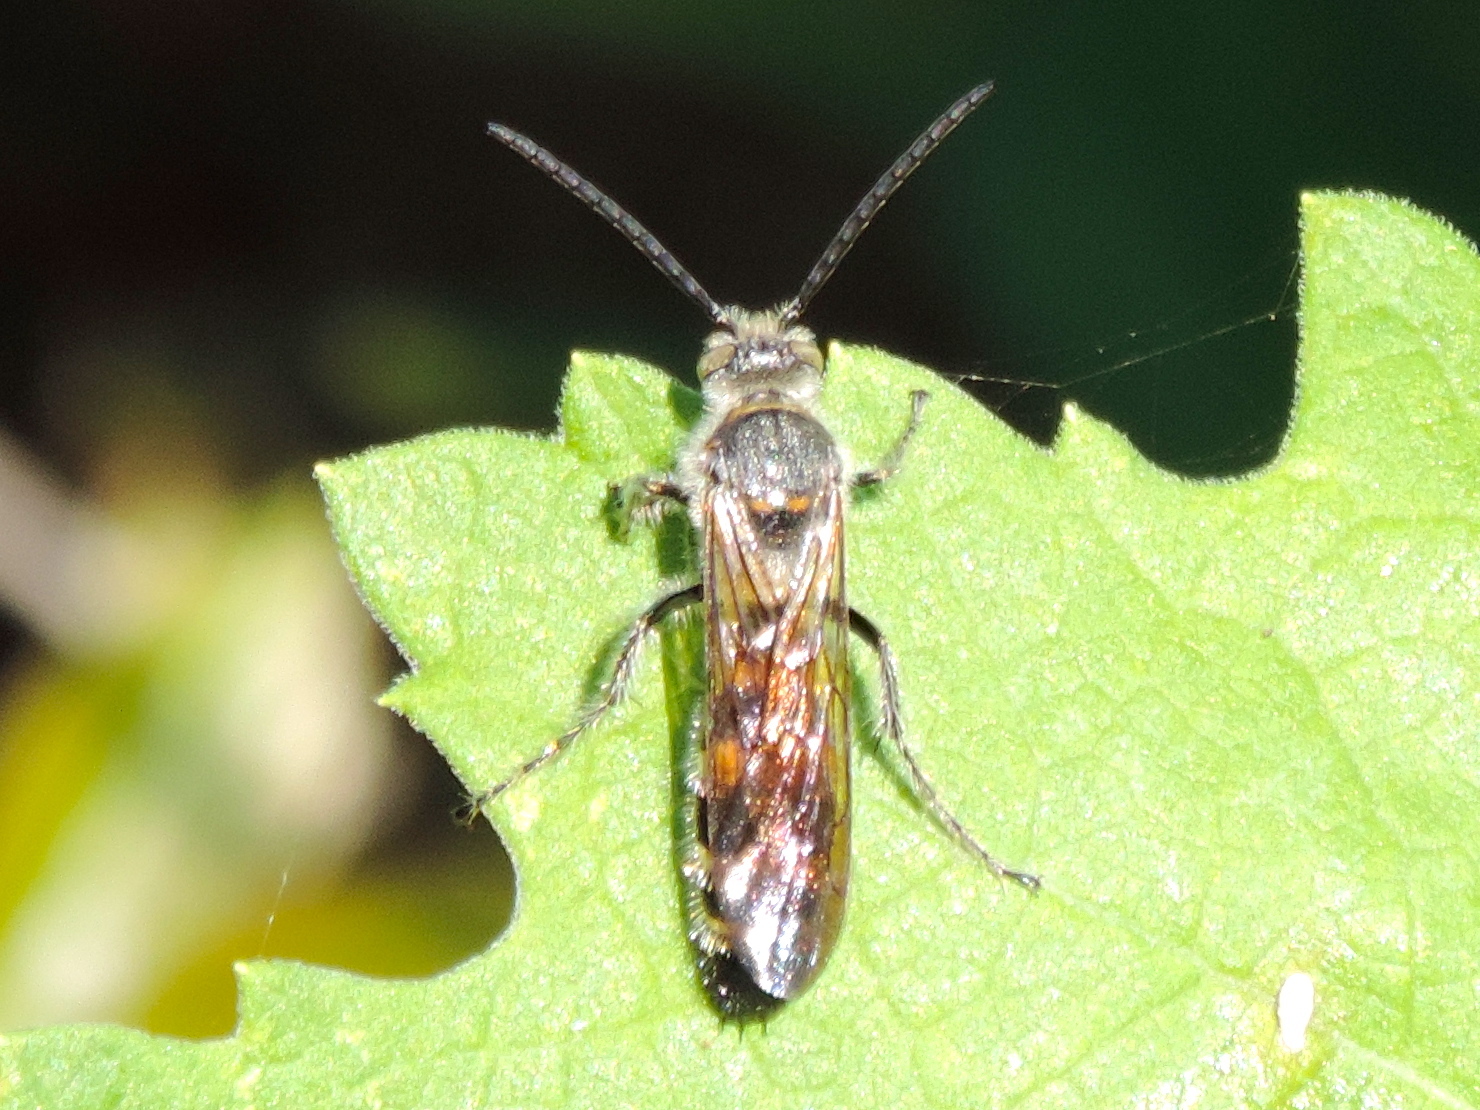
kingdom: Animalia
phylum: Arthropoda
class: Insecta
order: Hymenoptera
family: Scoliidae
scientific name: Scoliidae
